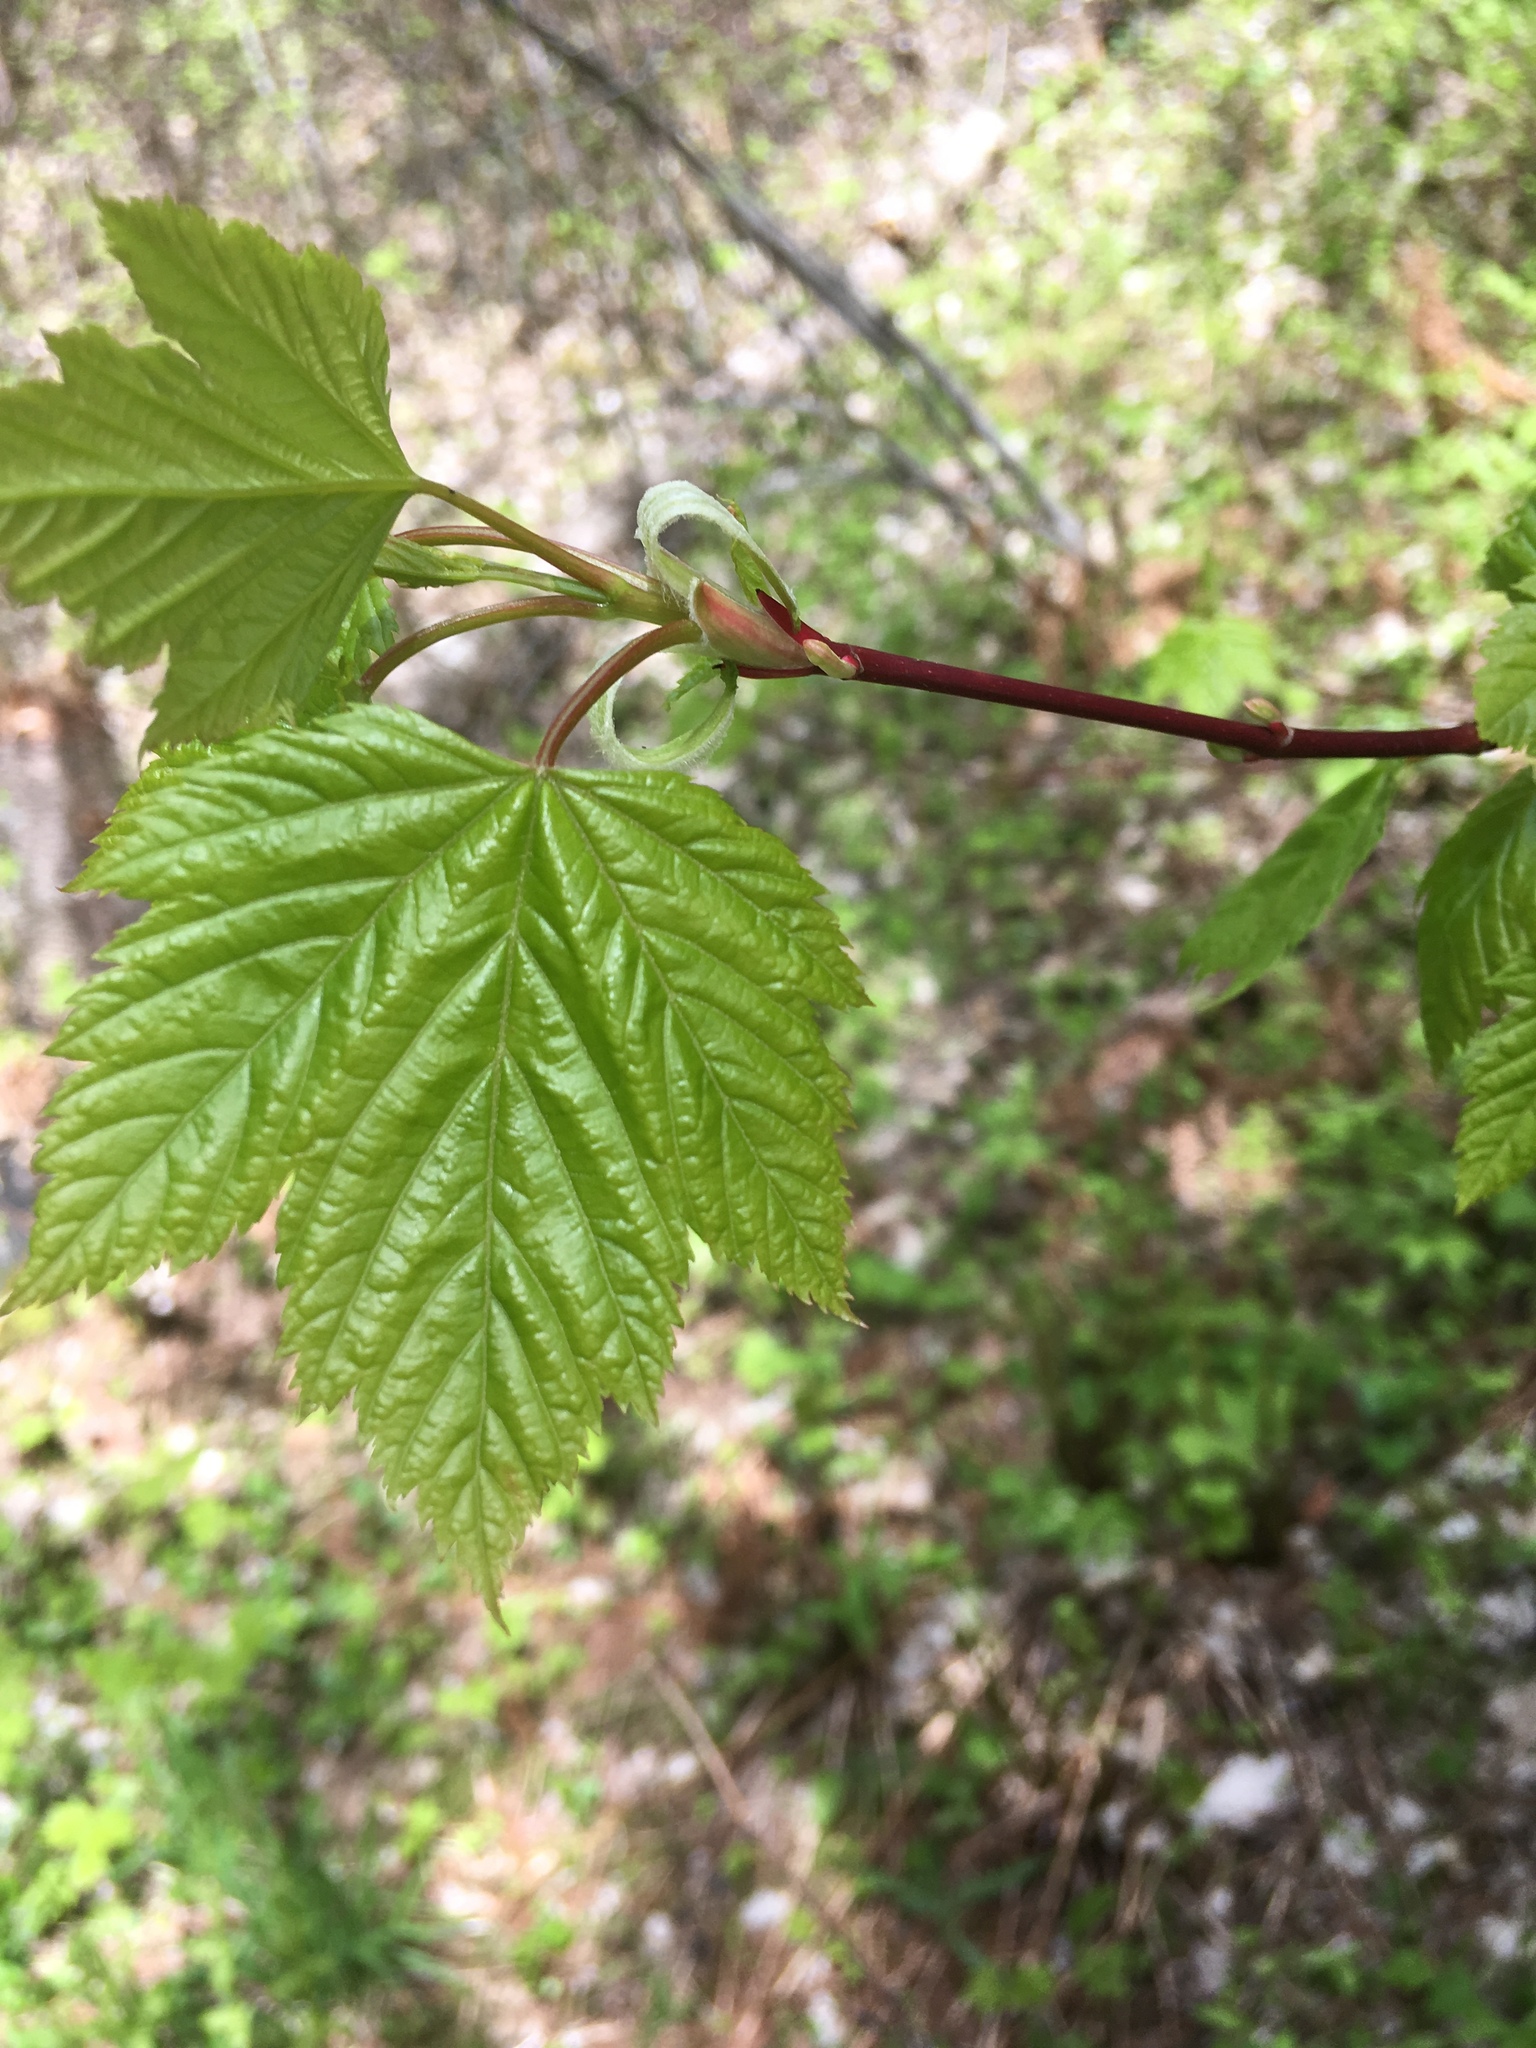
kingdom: Plantae
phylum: Tracheophyta
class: Magnoliopsida
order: Sapindales
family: Sapindaceae
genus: Acer
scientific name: Acer glabrum
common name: Rocky mountain maple
